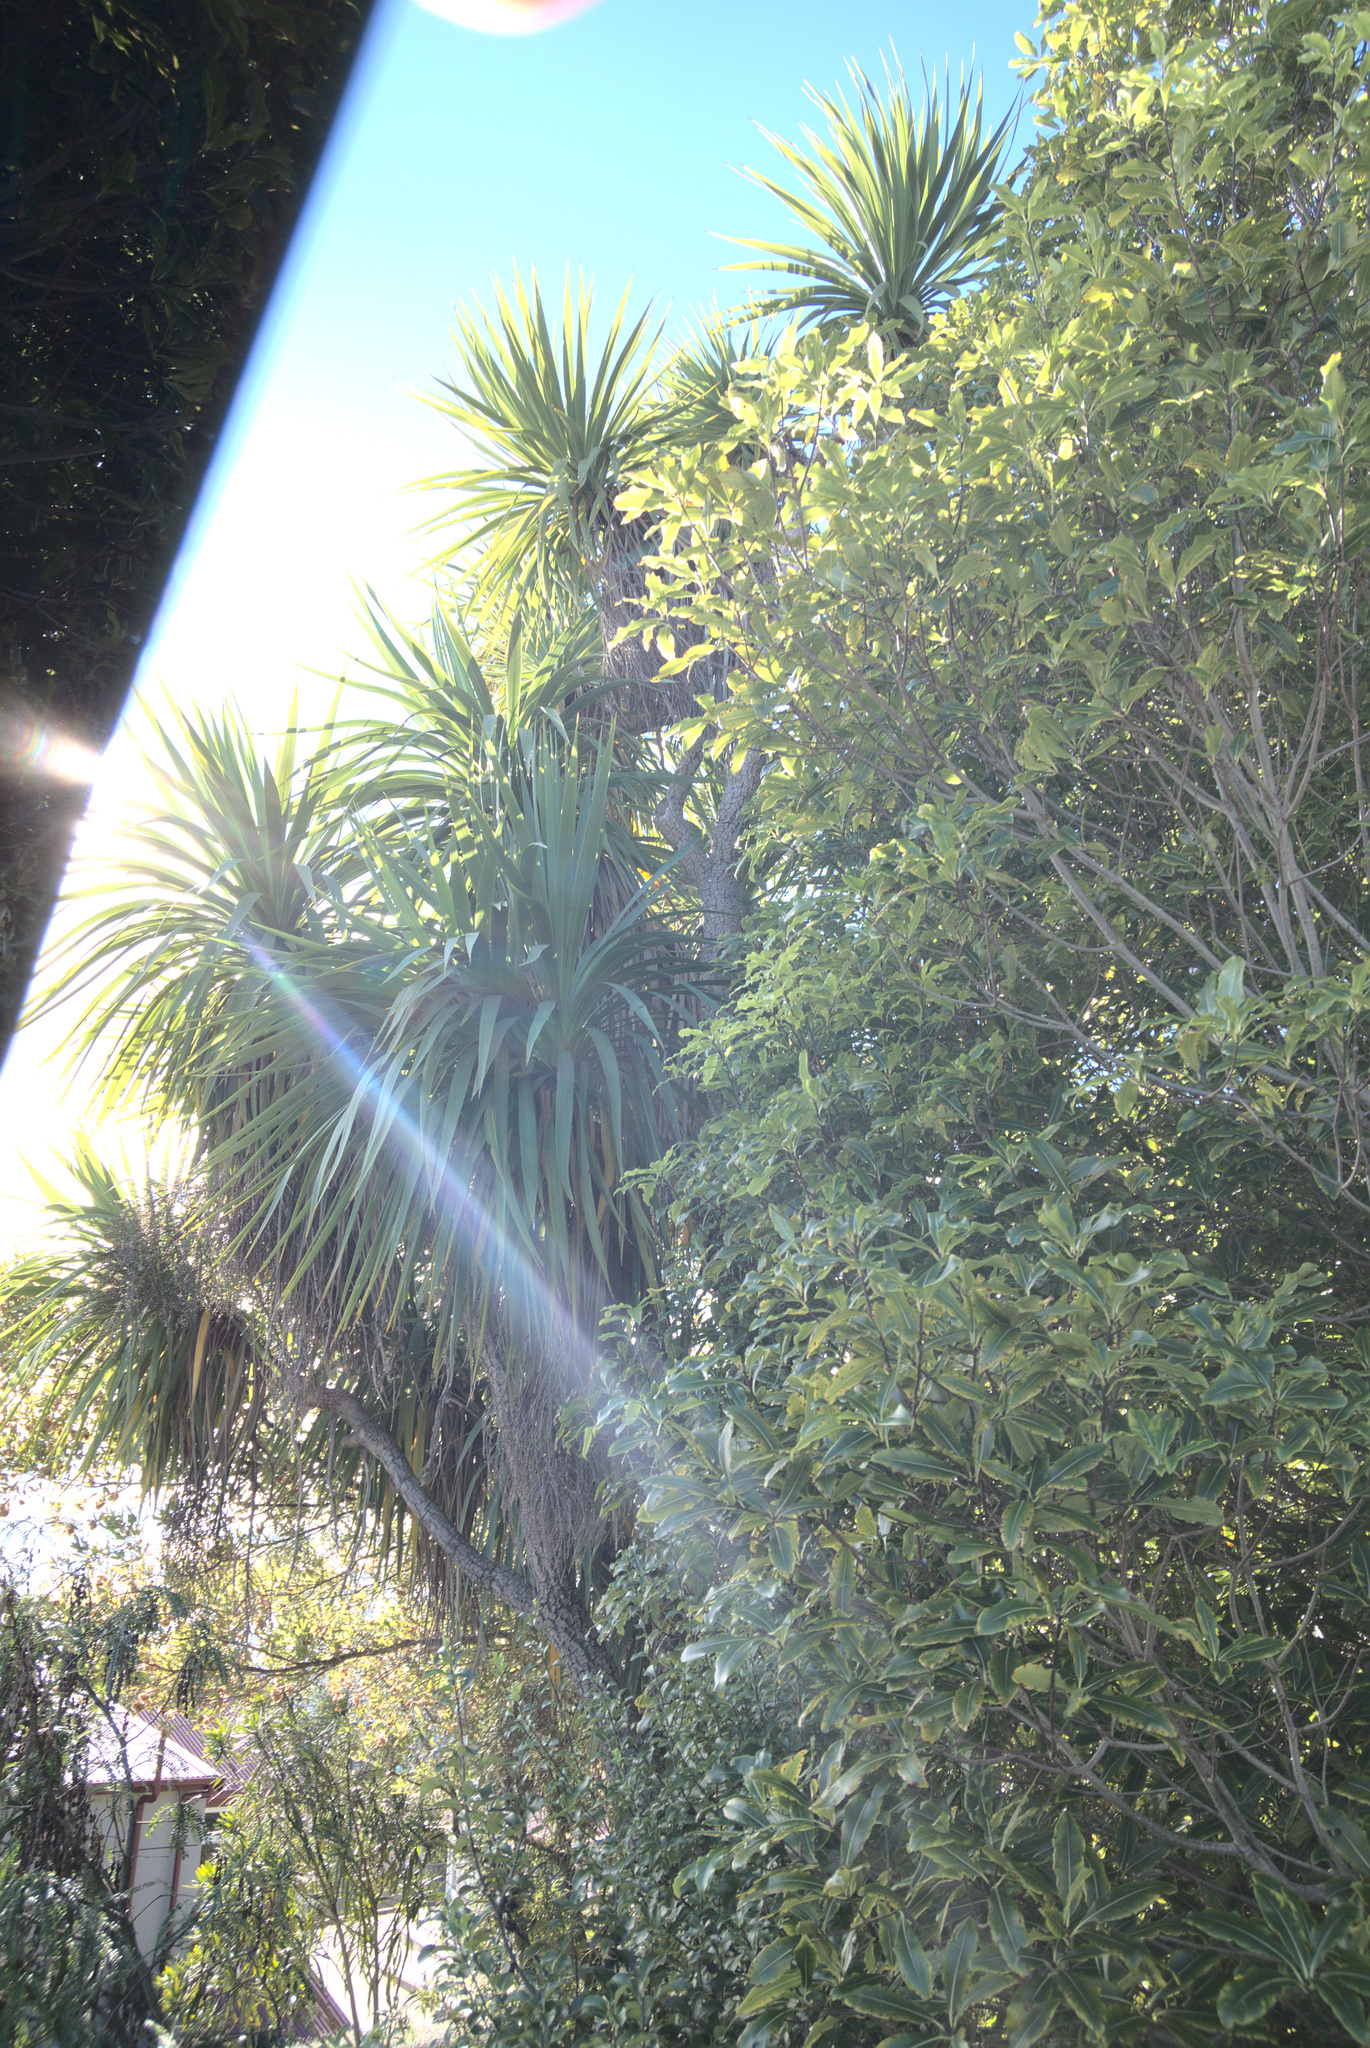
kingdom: Plantae
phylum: Tracheophyta
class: Liliopsida
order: Asparagales
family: Asparagaceae
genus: Cordyline
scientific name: Cordyline australis
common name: Cabbage-palm
